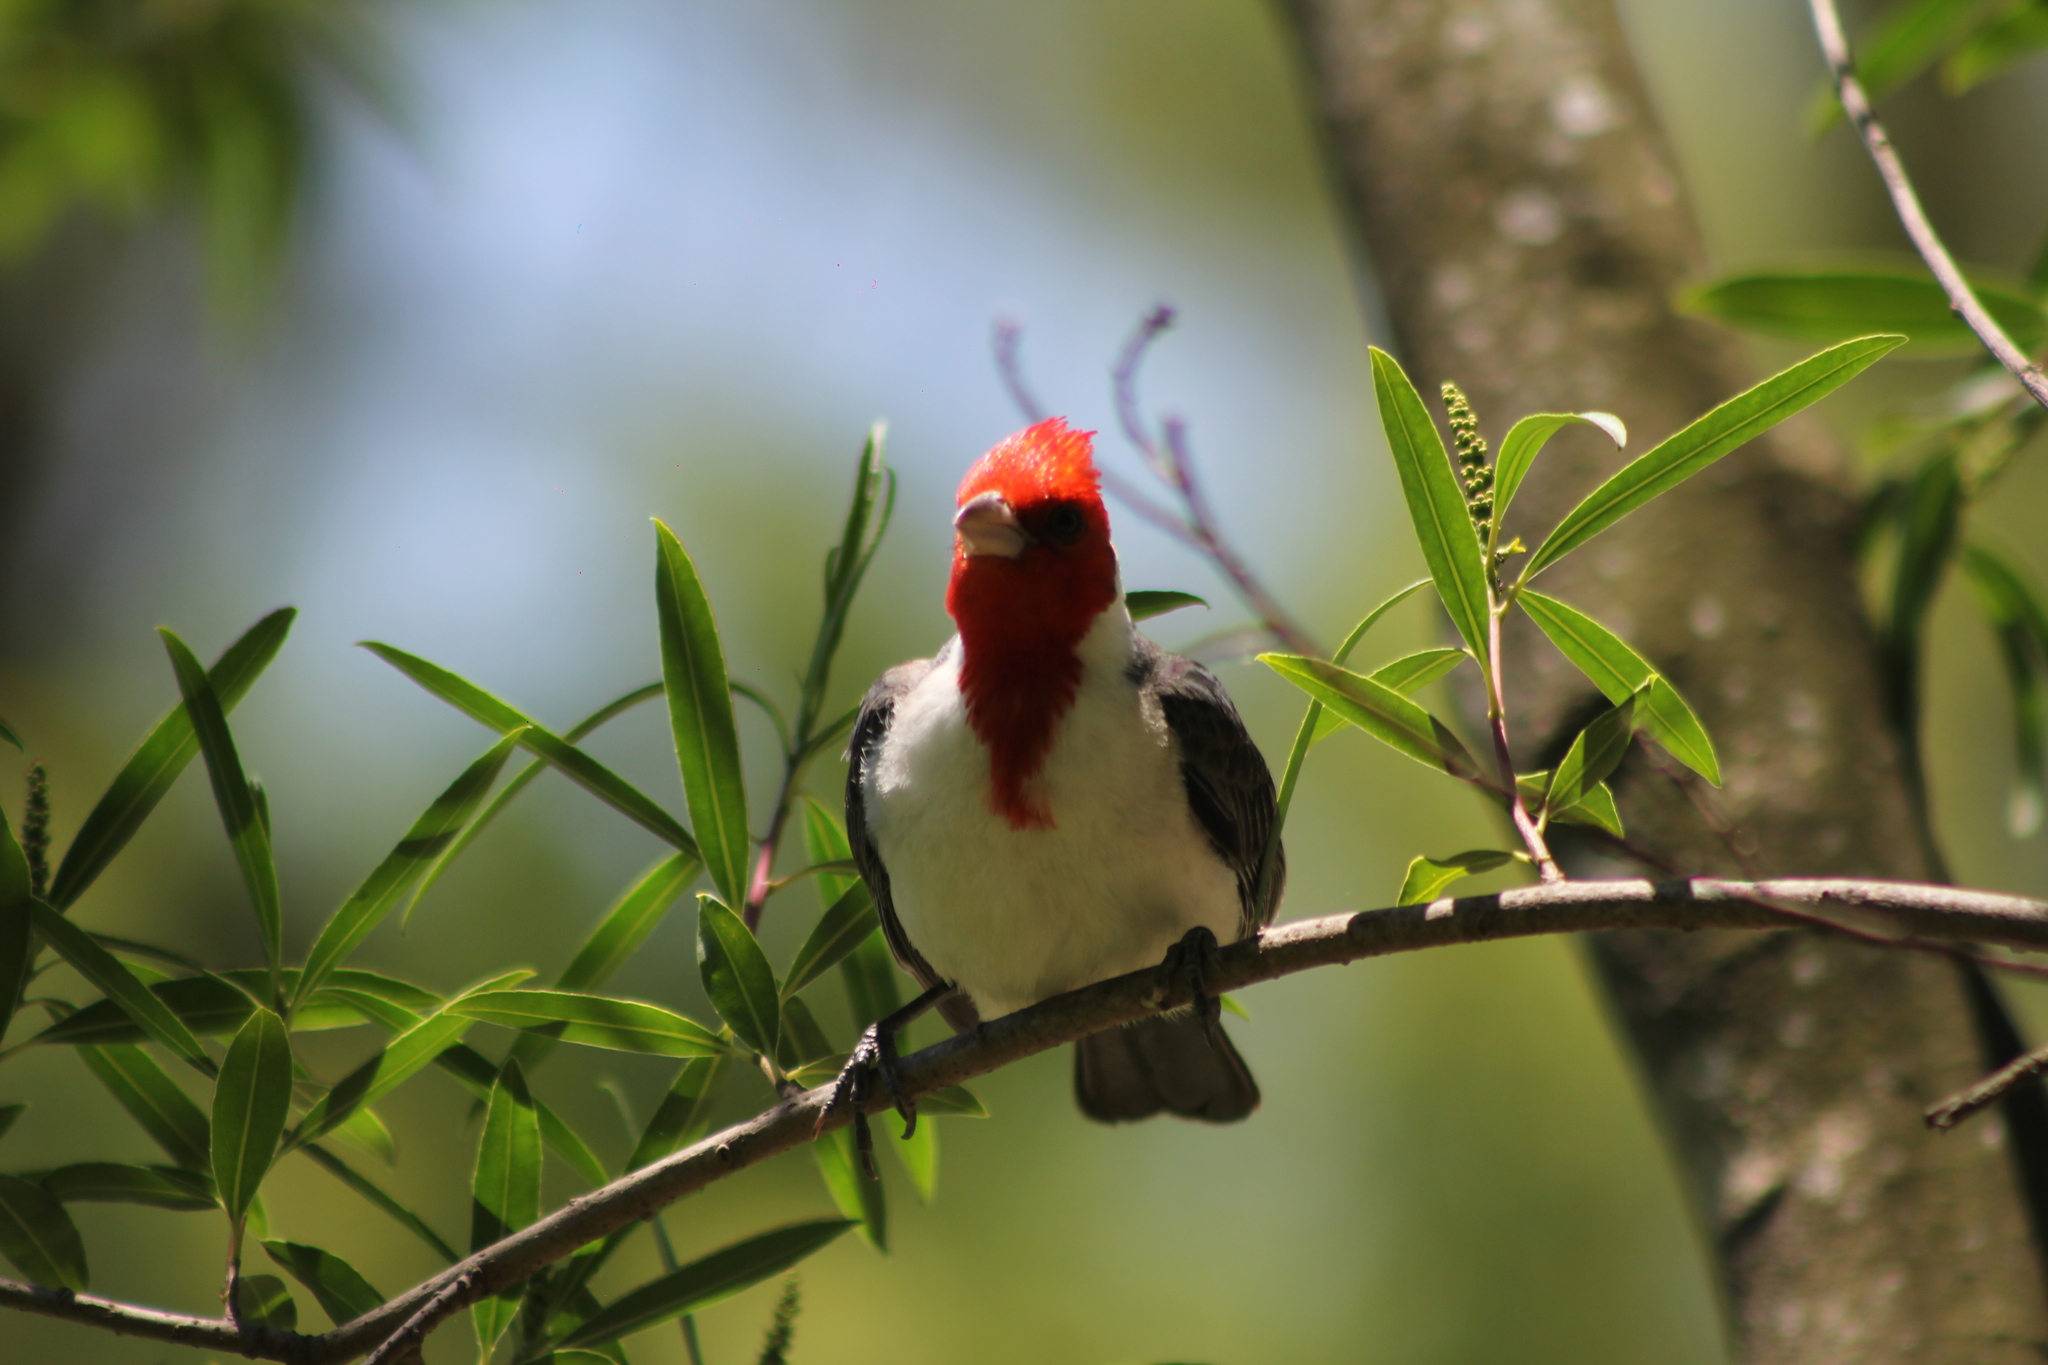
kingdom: Animalia
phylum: Chordata
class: Aves
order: Passeriformes
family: Thraupidae
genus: Paroaria
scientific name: Paroaria coronata
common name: Red-crested cardinal
